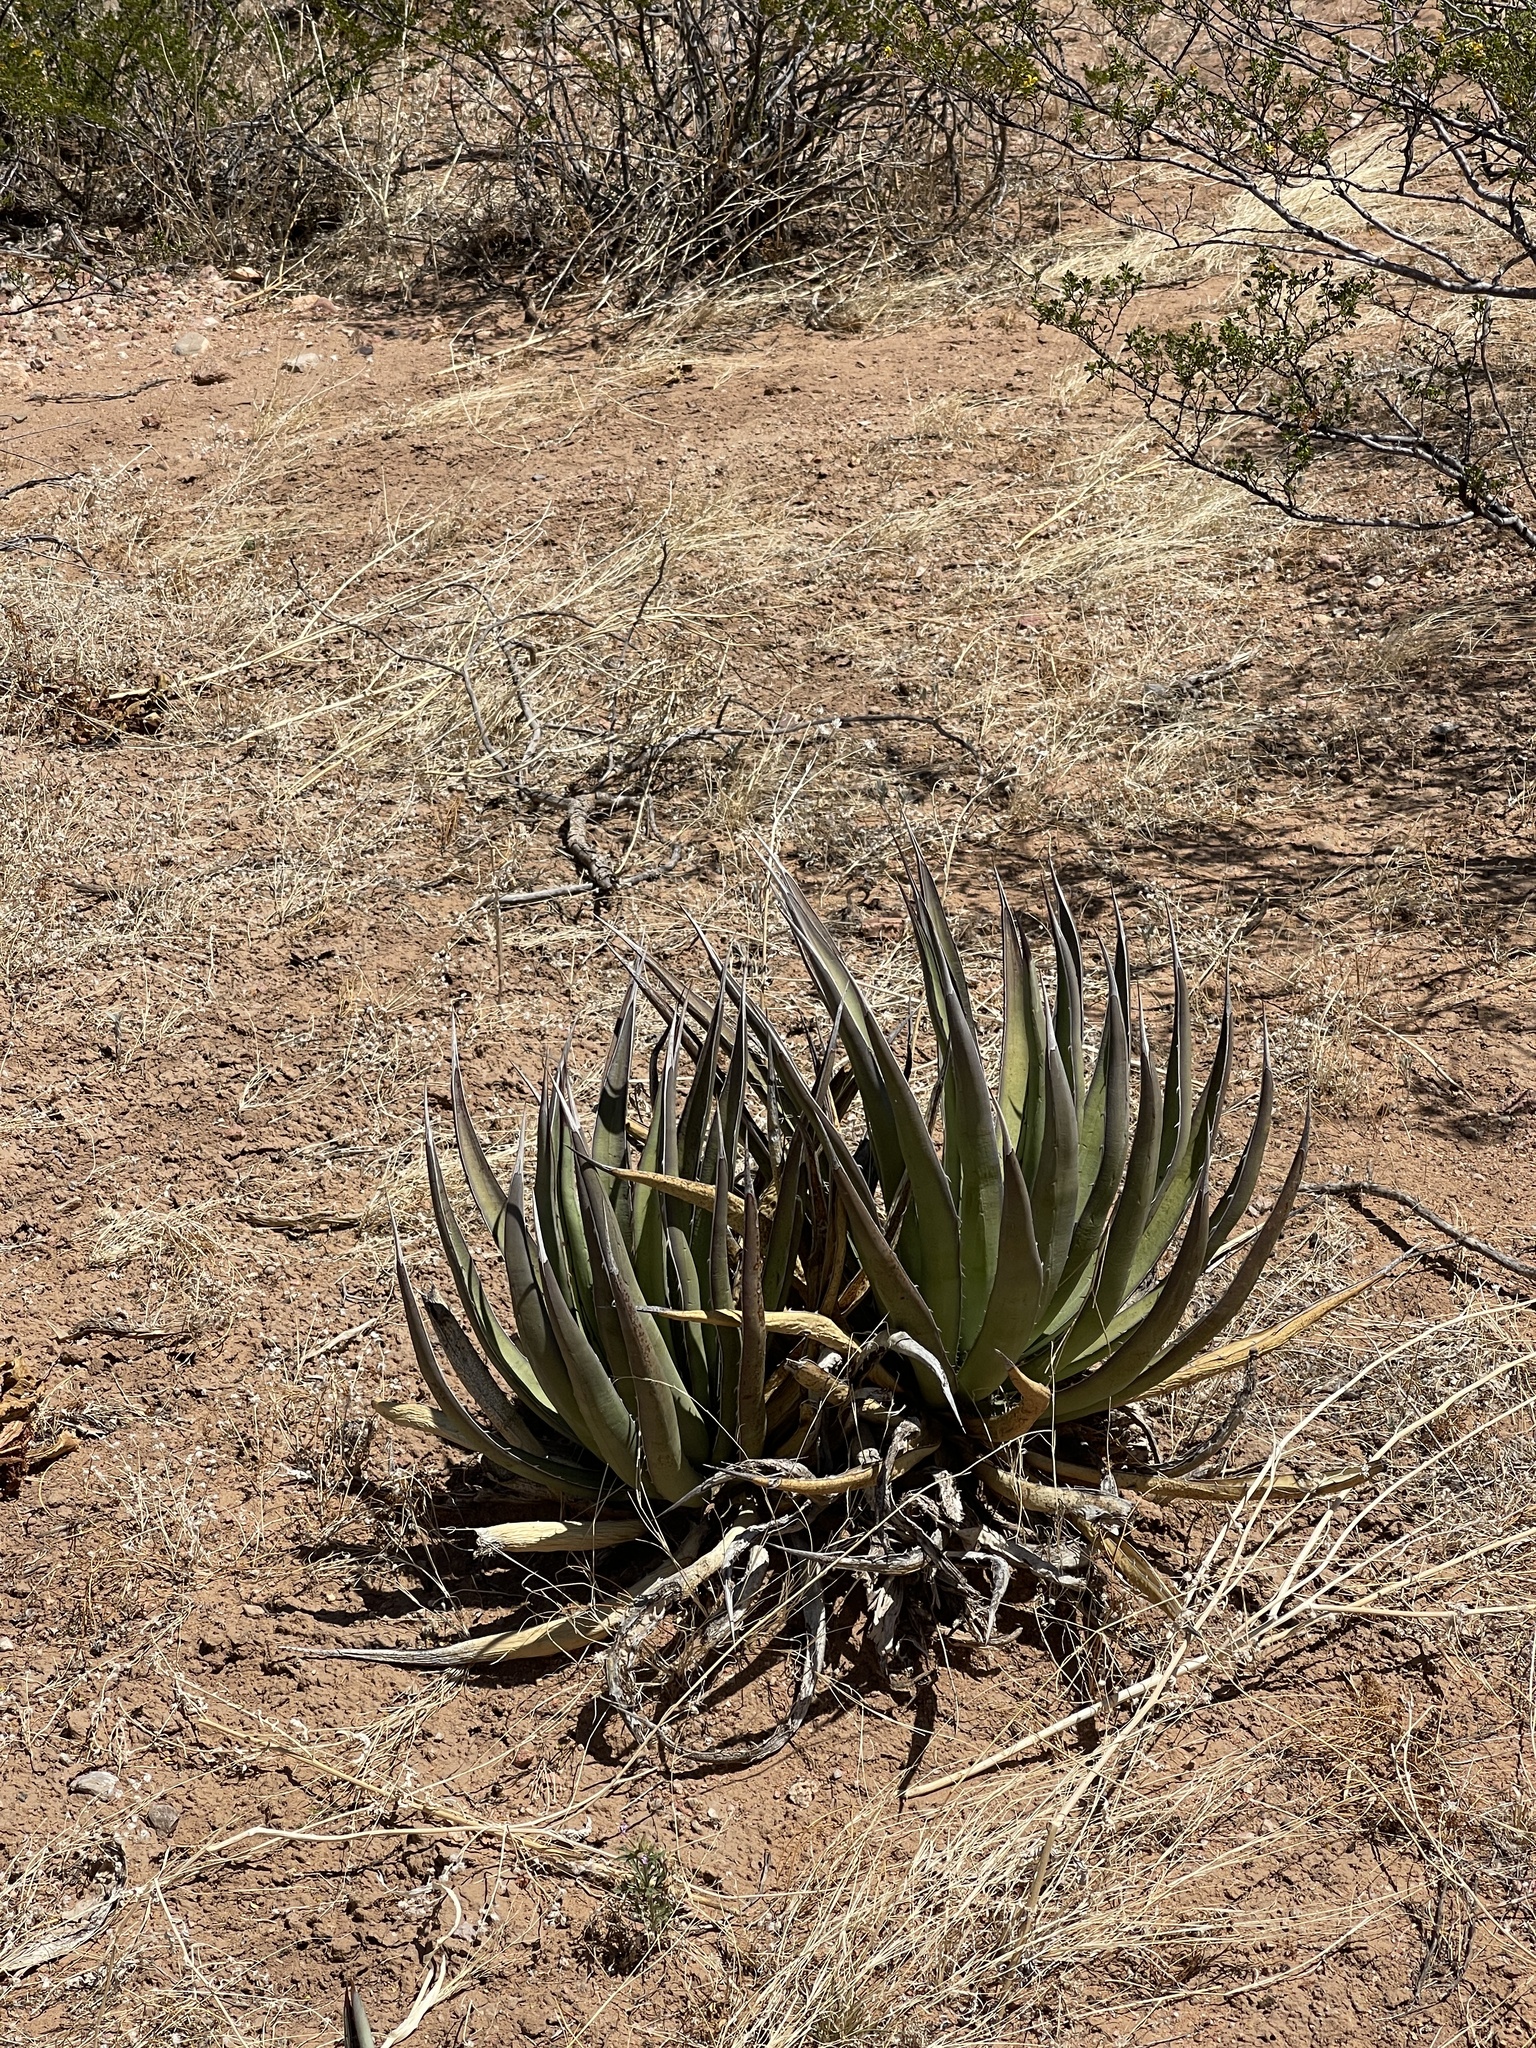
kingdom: Plantae
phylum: Tracheophyta
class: Liliopsida
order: Asparagales
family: Asparagaceae
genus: Agave
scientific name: Agave lechuguilla
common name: Lecheguilla agave
